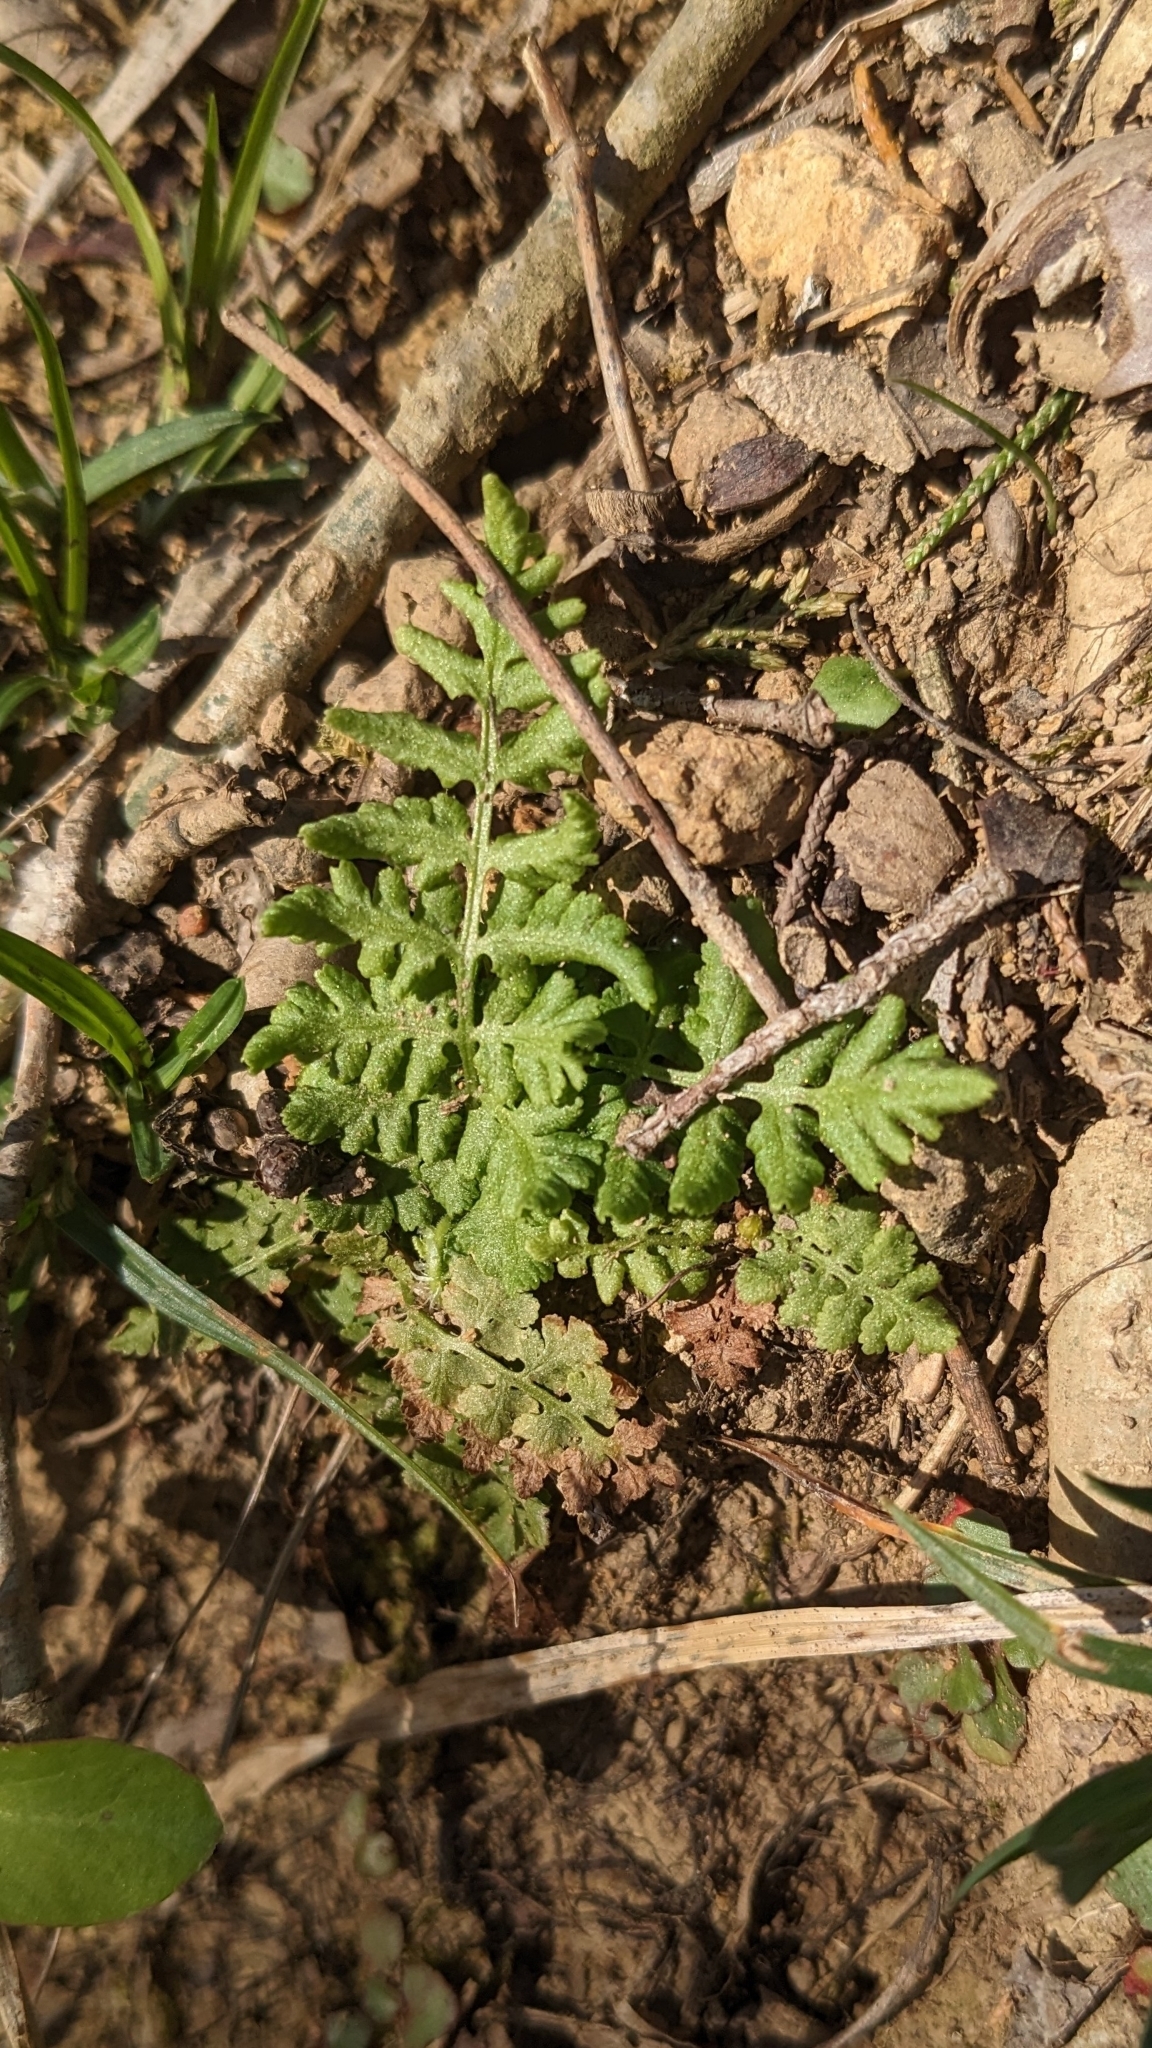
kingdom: Plantae
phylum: Tracheophyta
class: Polypodiopsida
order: Polypodiales
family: Woodsiaceae
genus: Physematium
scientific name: Physematium obtusum
